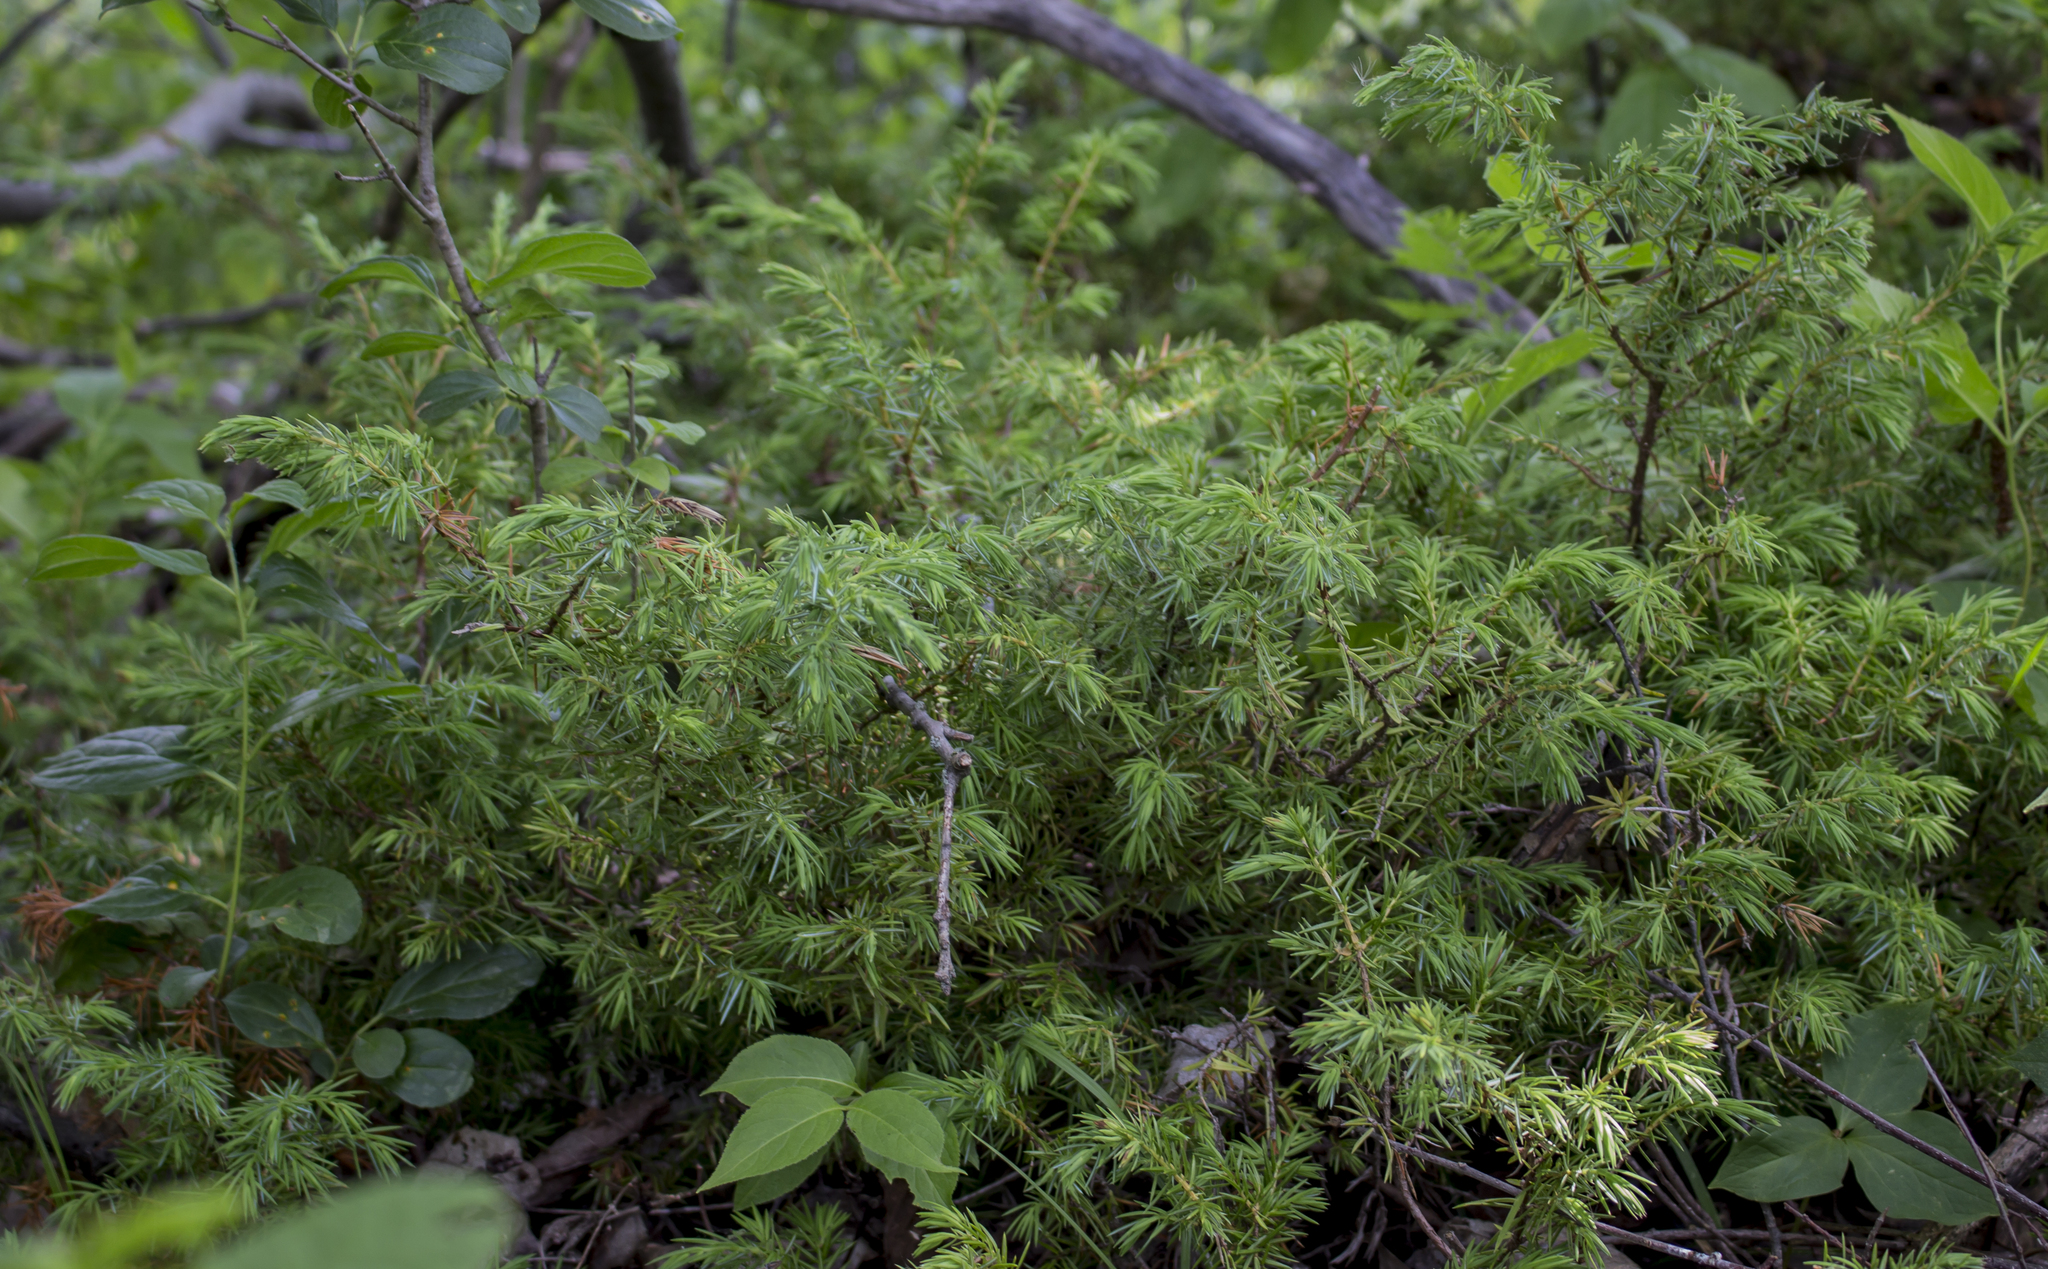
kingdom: Plantae
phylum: Tracheophyta
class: Pinopsida
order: Pinales
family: Cupressaceae
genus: Juniperus
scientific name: Juniperus communis
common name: Common juniper
